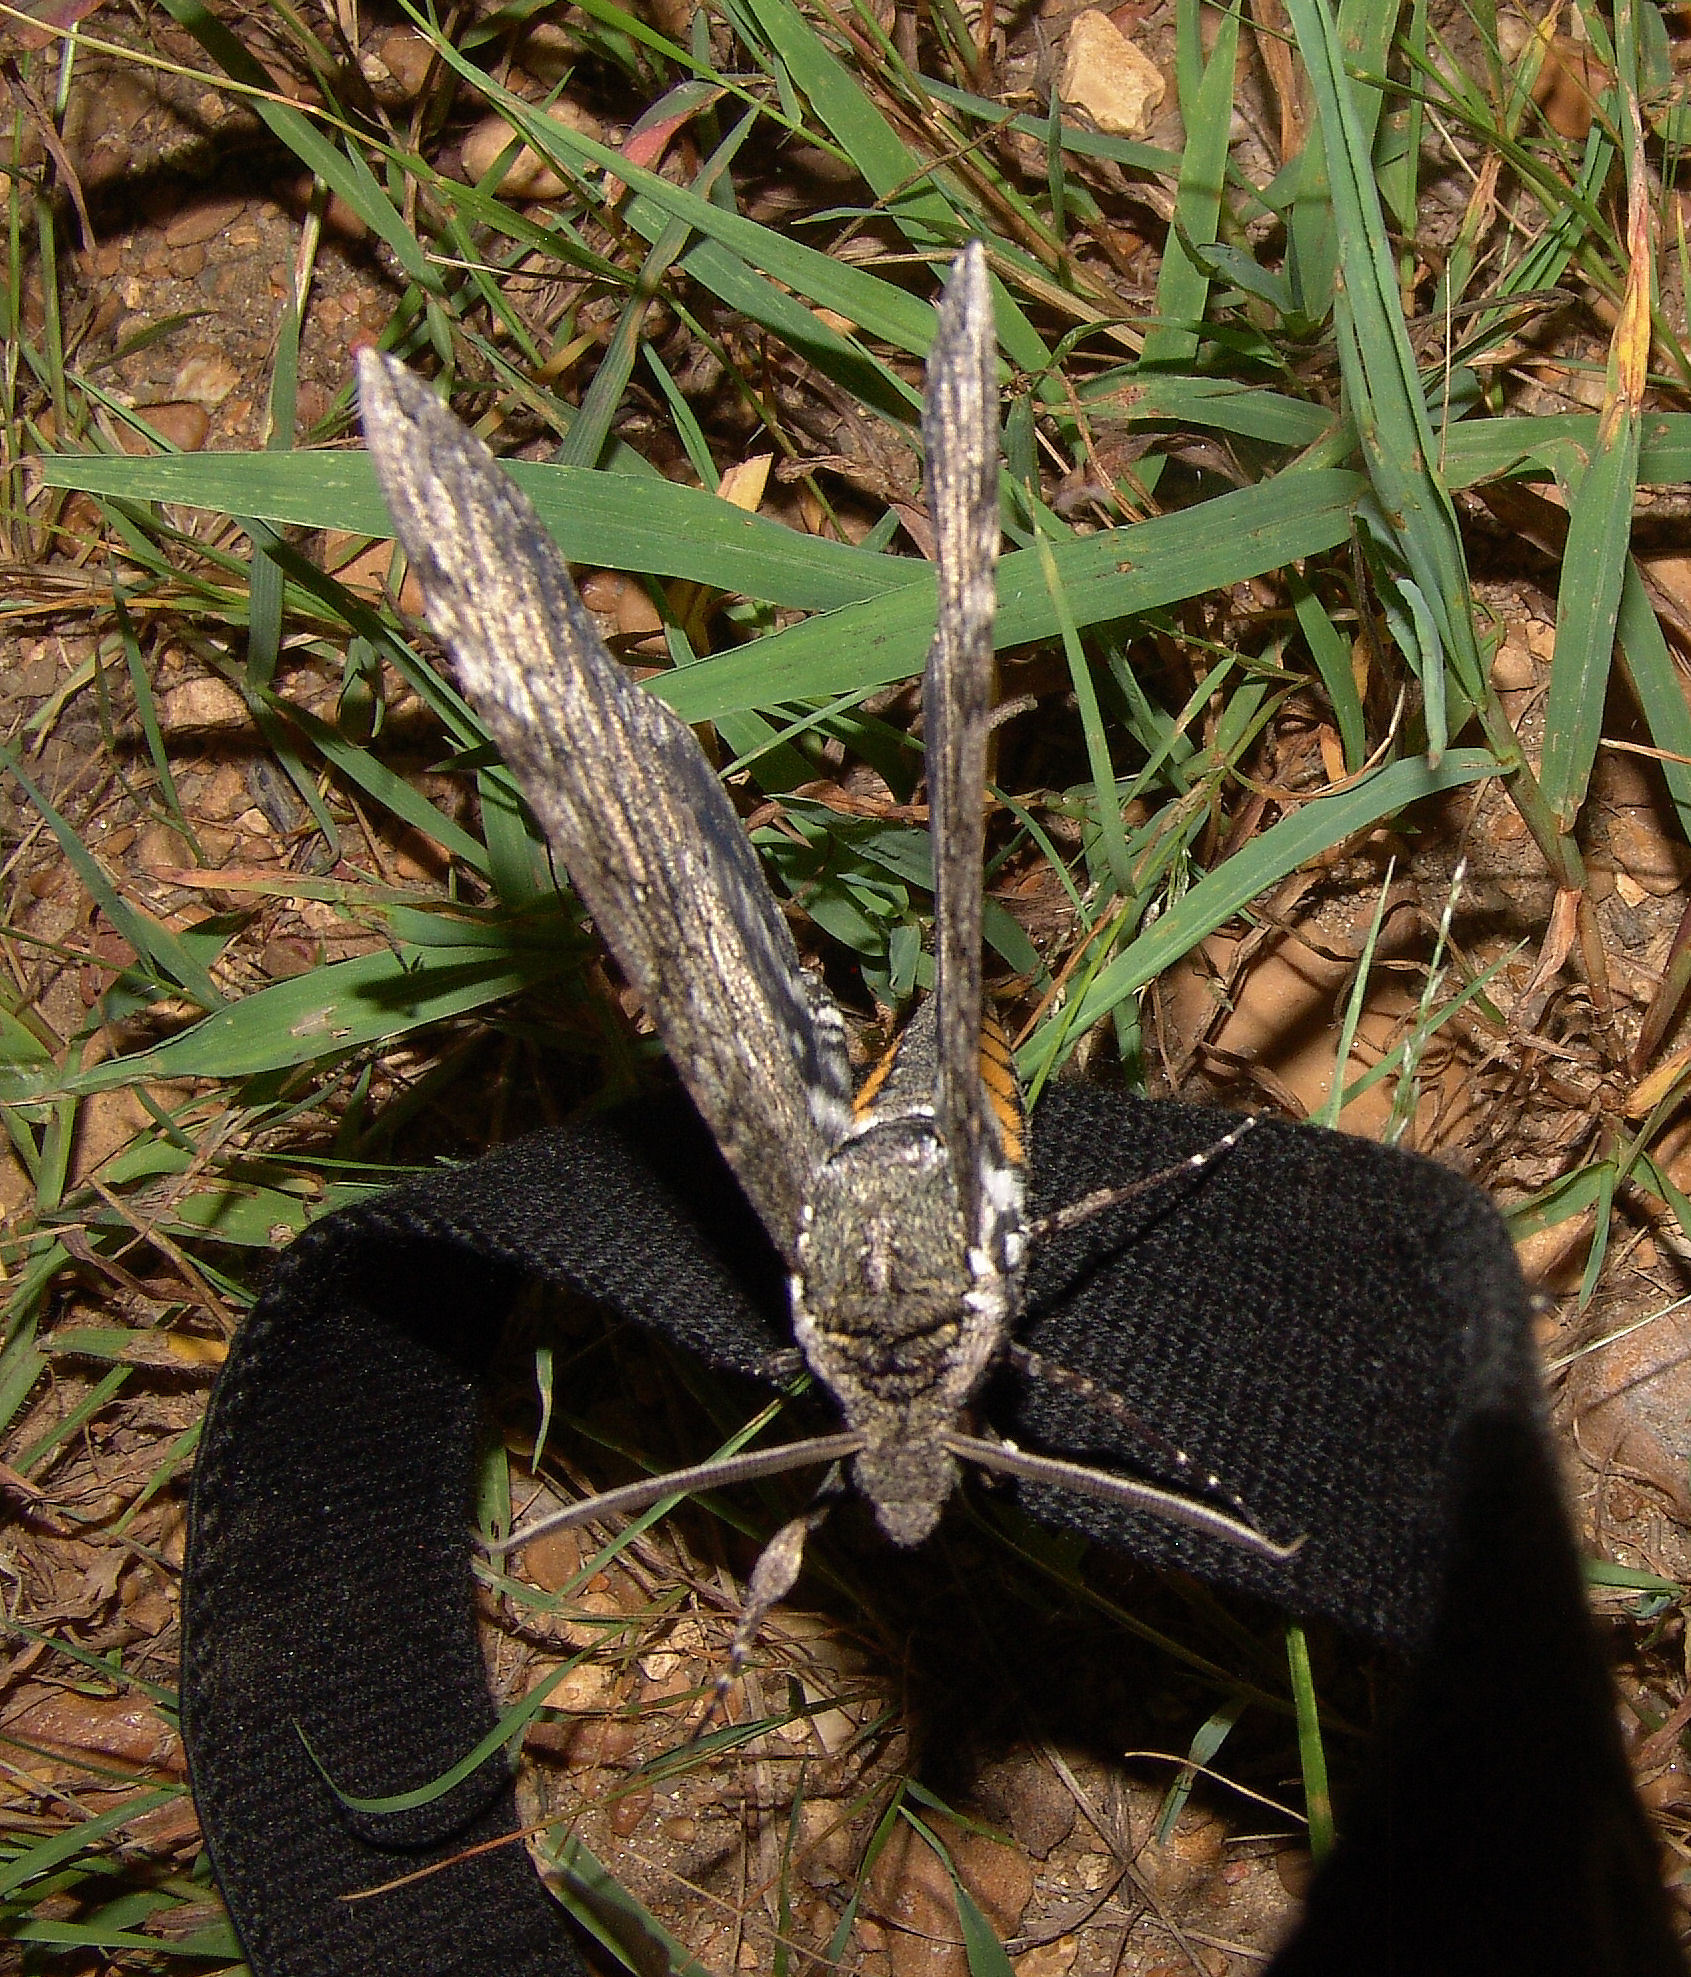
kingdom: Animalia
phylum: Arthropoda
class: Insecta
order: Lepidoptera
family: Sphingidae
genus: Manduca
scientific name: Manduca sexta
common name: Carolina sphinx
